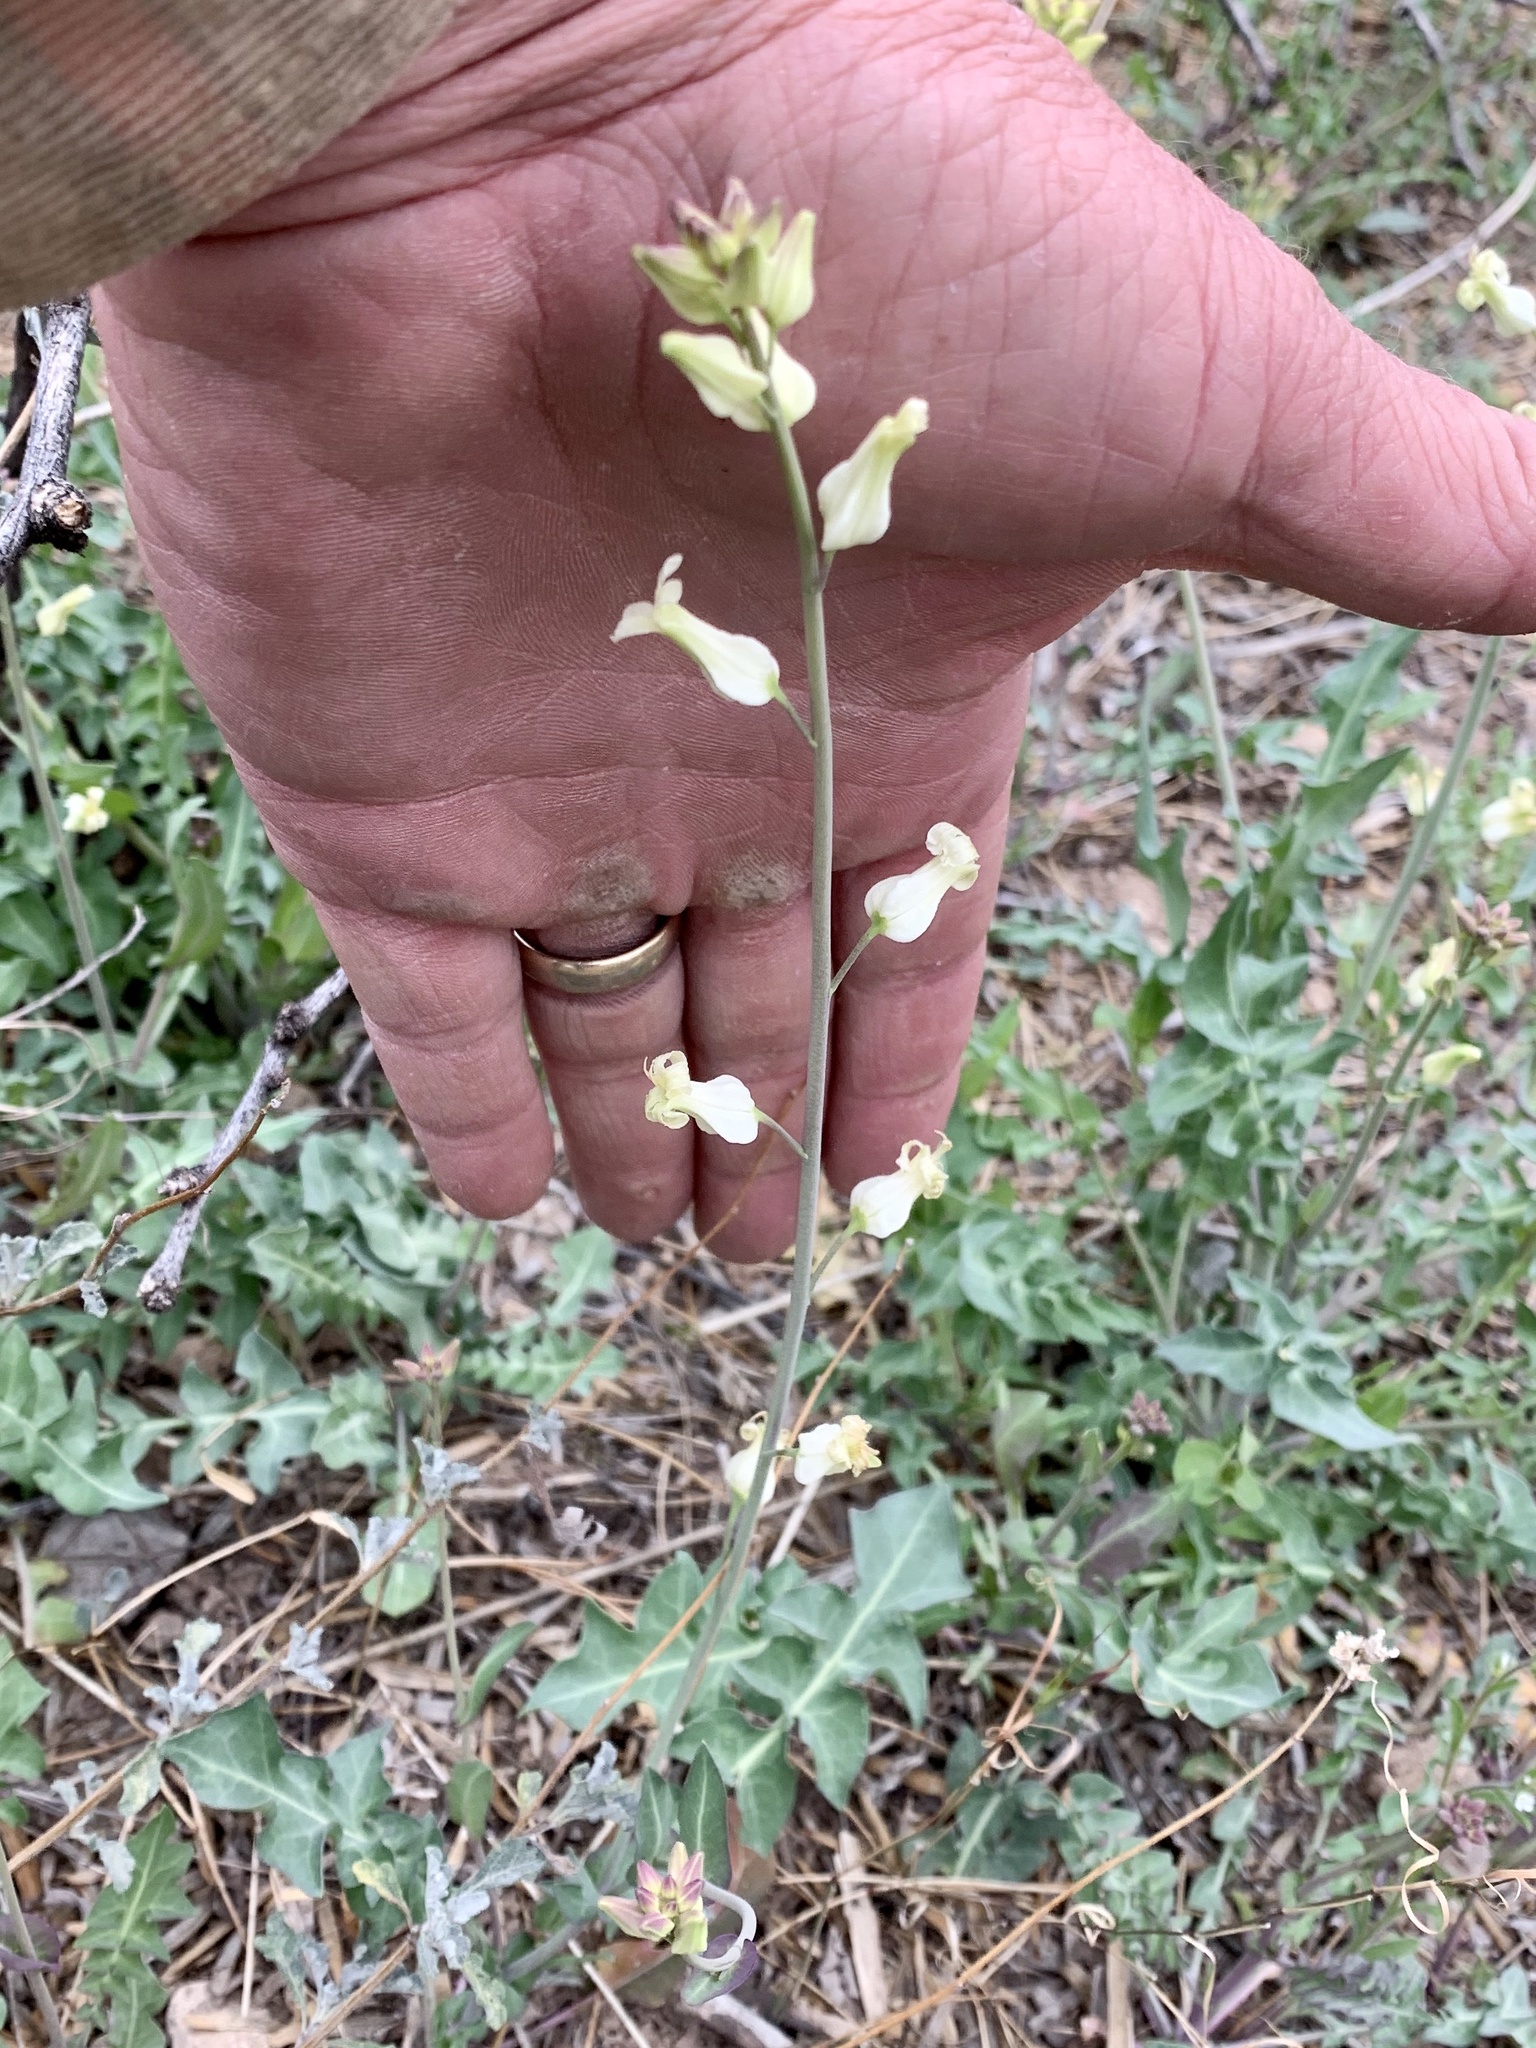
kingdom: Plantae
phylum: Tracheophyta
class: Magnoliopsida
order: Brassicales
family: Brassicaceae
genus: Streptanthus
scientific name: Streptanthus carinatus
